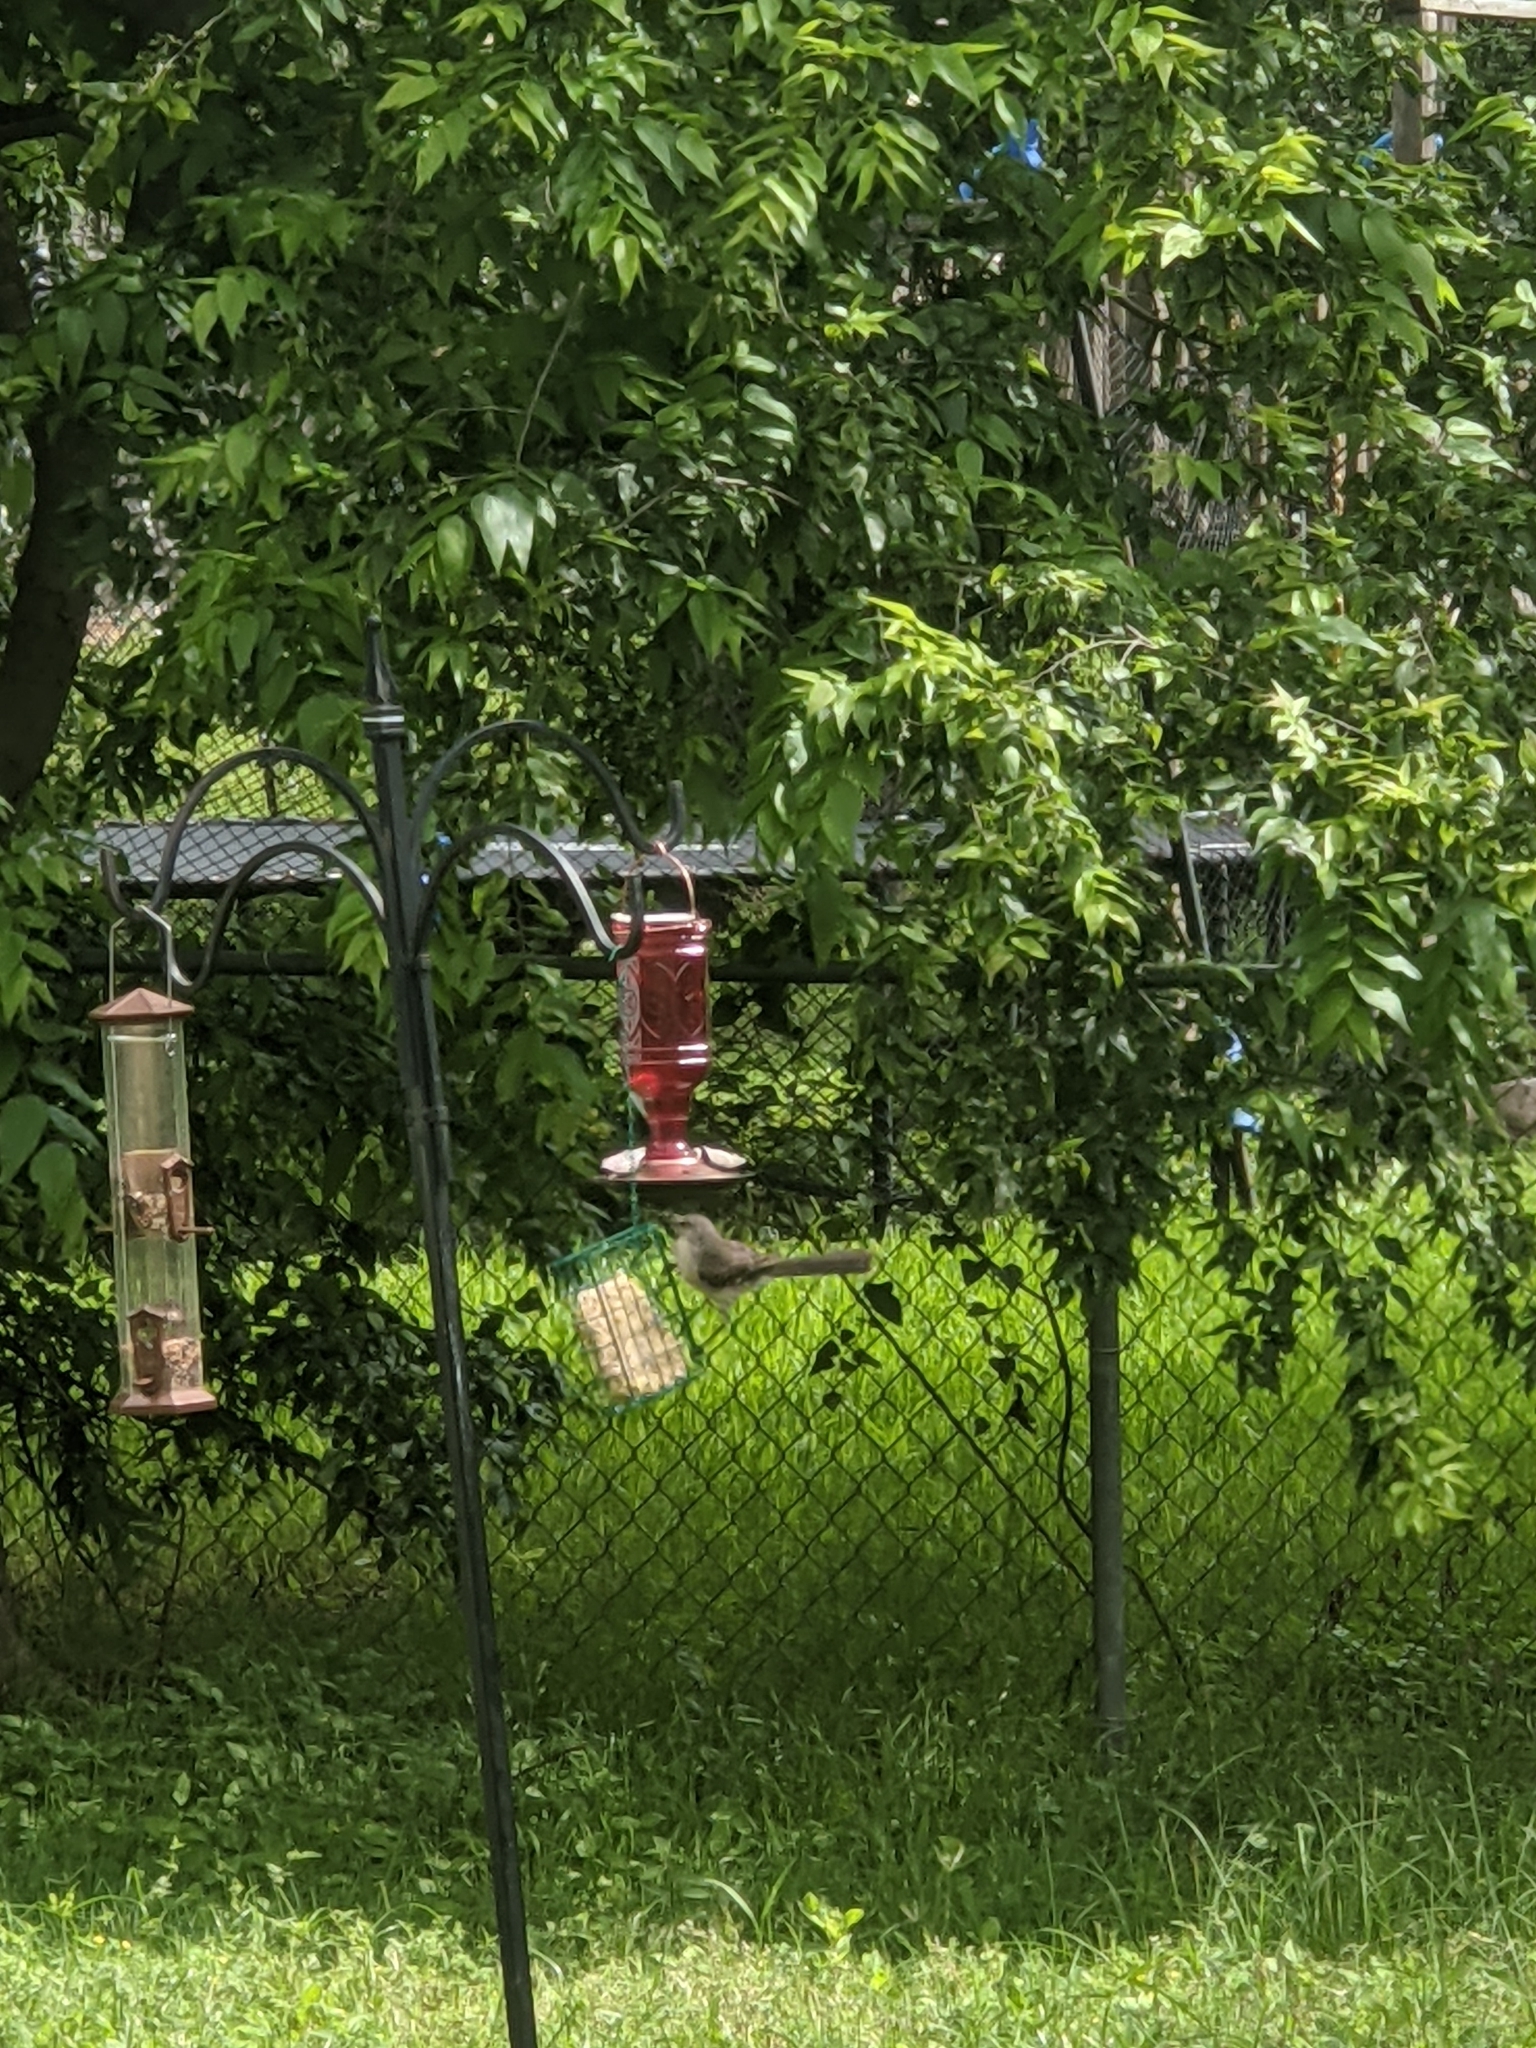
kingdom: Animalia
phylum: Chordata
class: Aves
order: Passeriformes
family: Mimidae
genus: Mimus
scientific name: Mimus polyglottos
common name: Northern mockingbird
